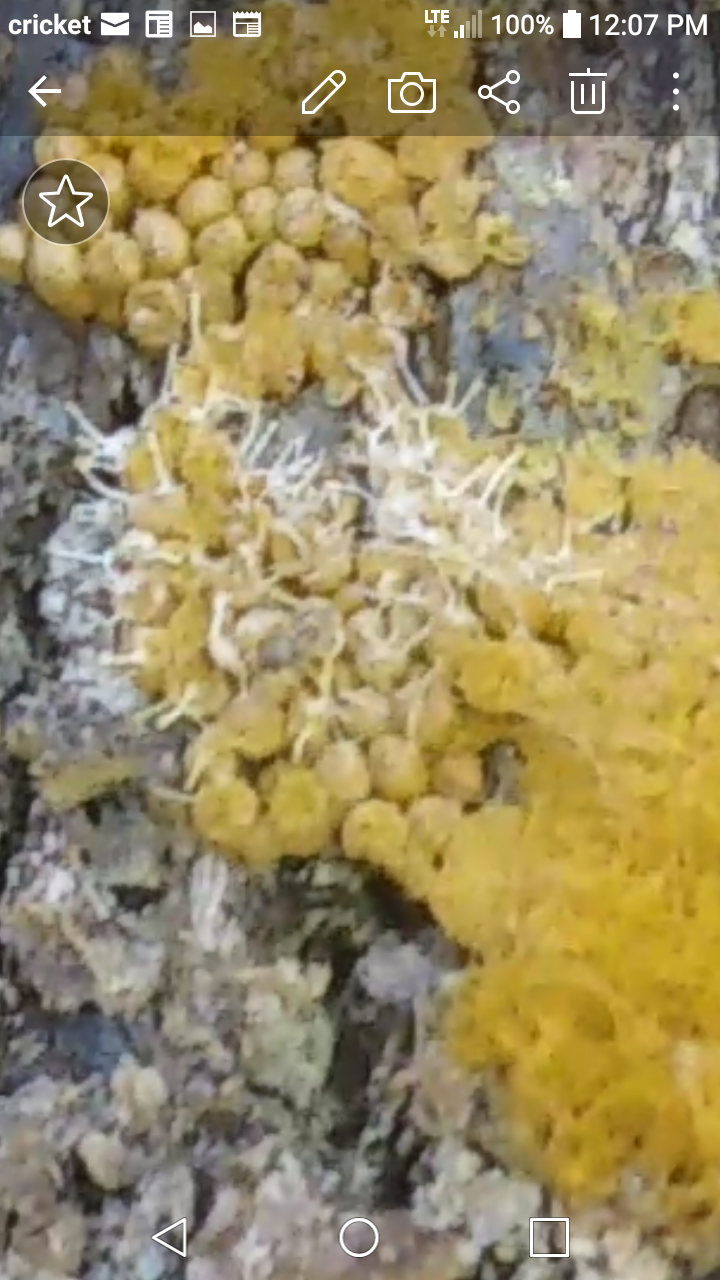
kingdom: Fungi
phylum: Ascomycota
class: Sordariomycetes
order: Hypocreales
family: Ophiocordycipitaceae
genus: Polycephalomyces
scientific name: Polycephalomyces tomentosus
